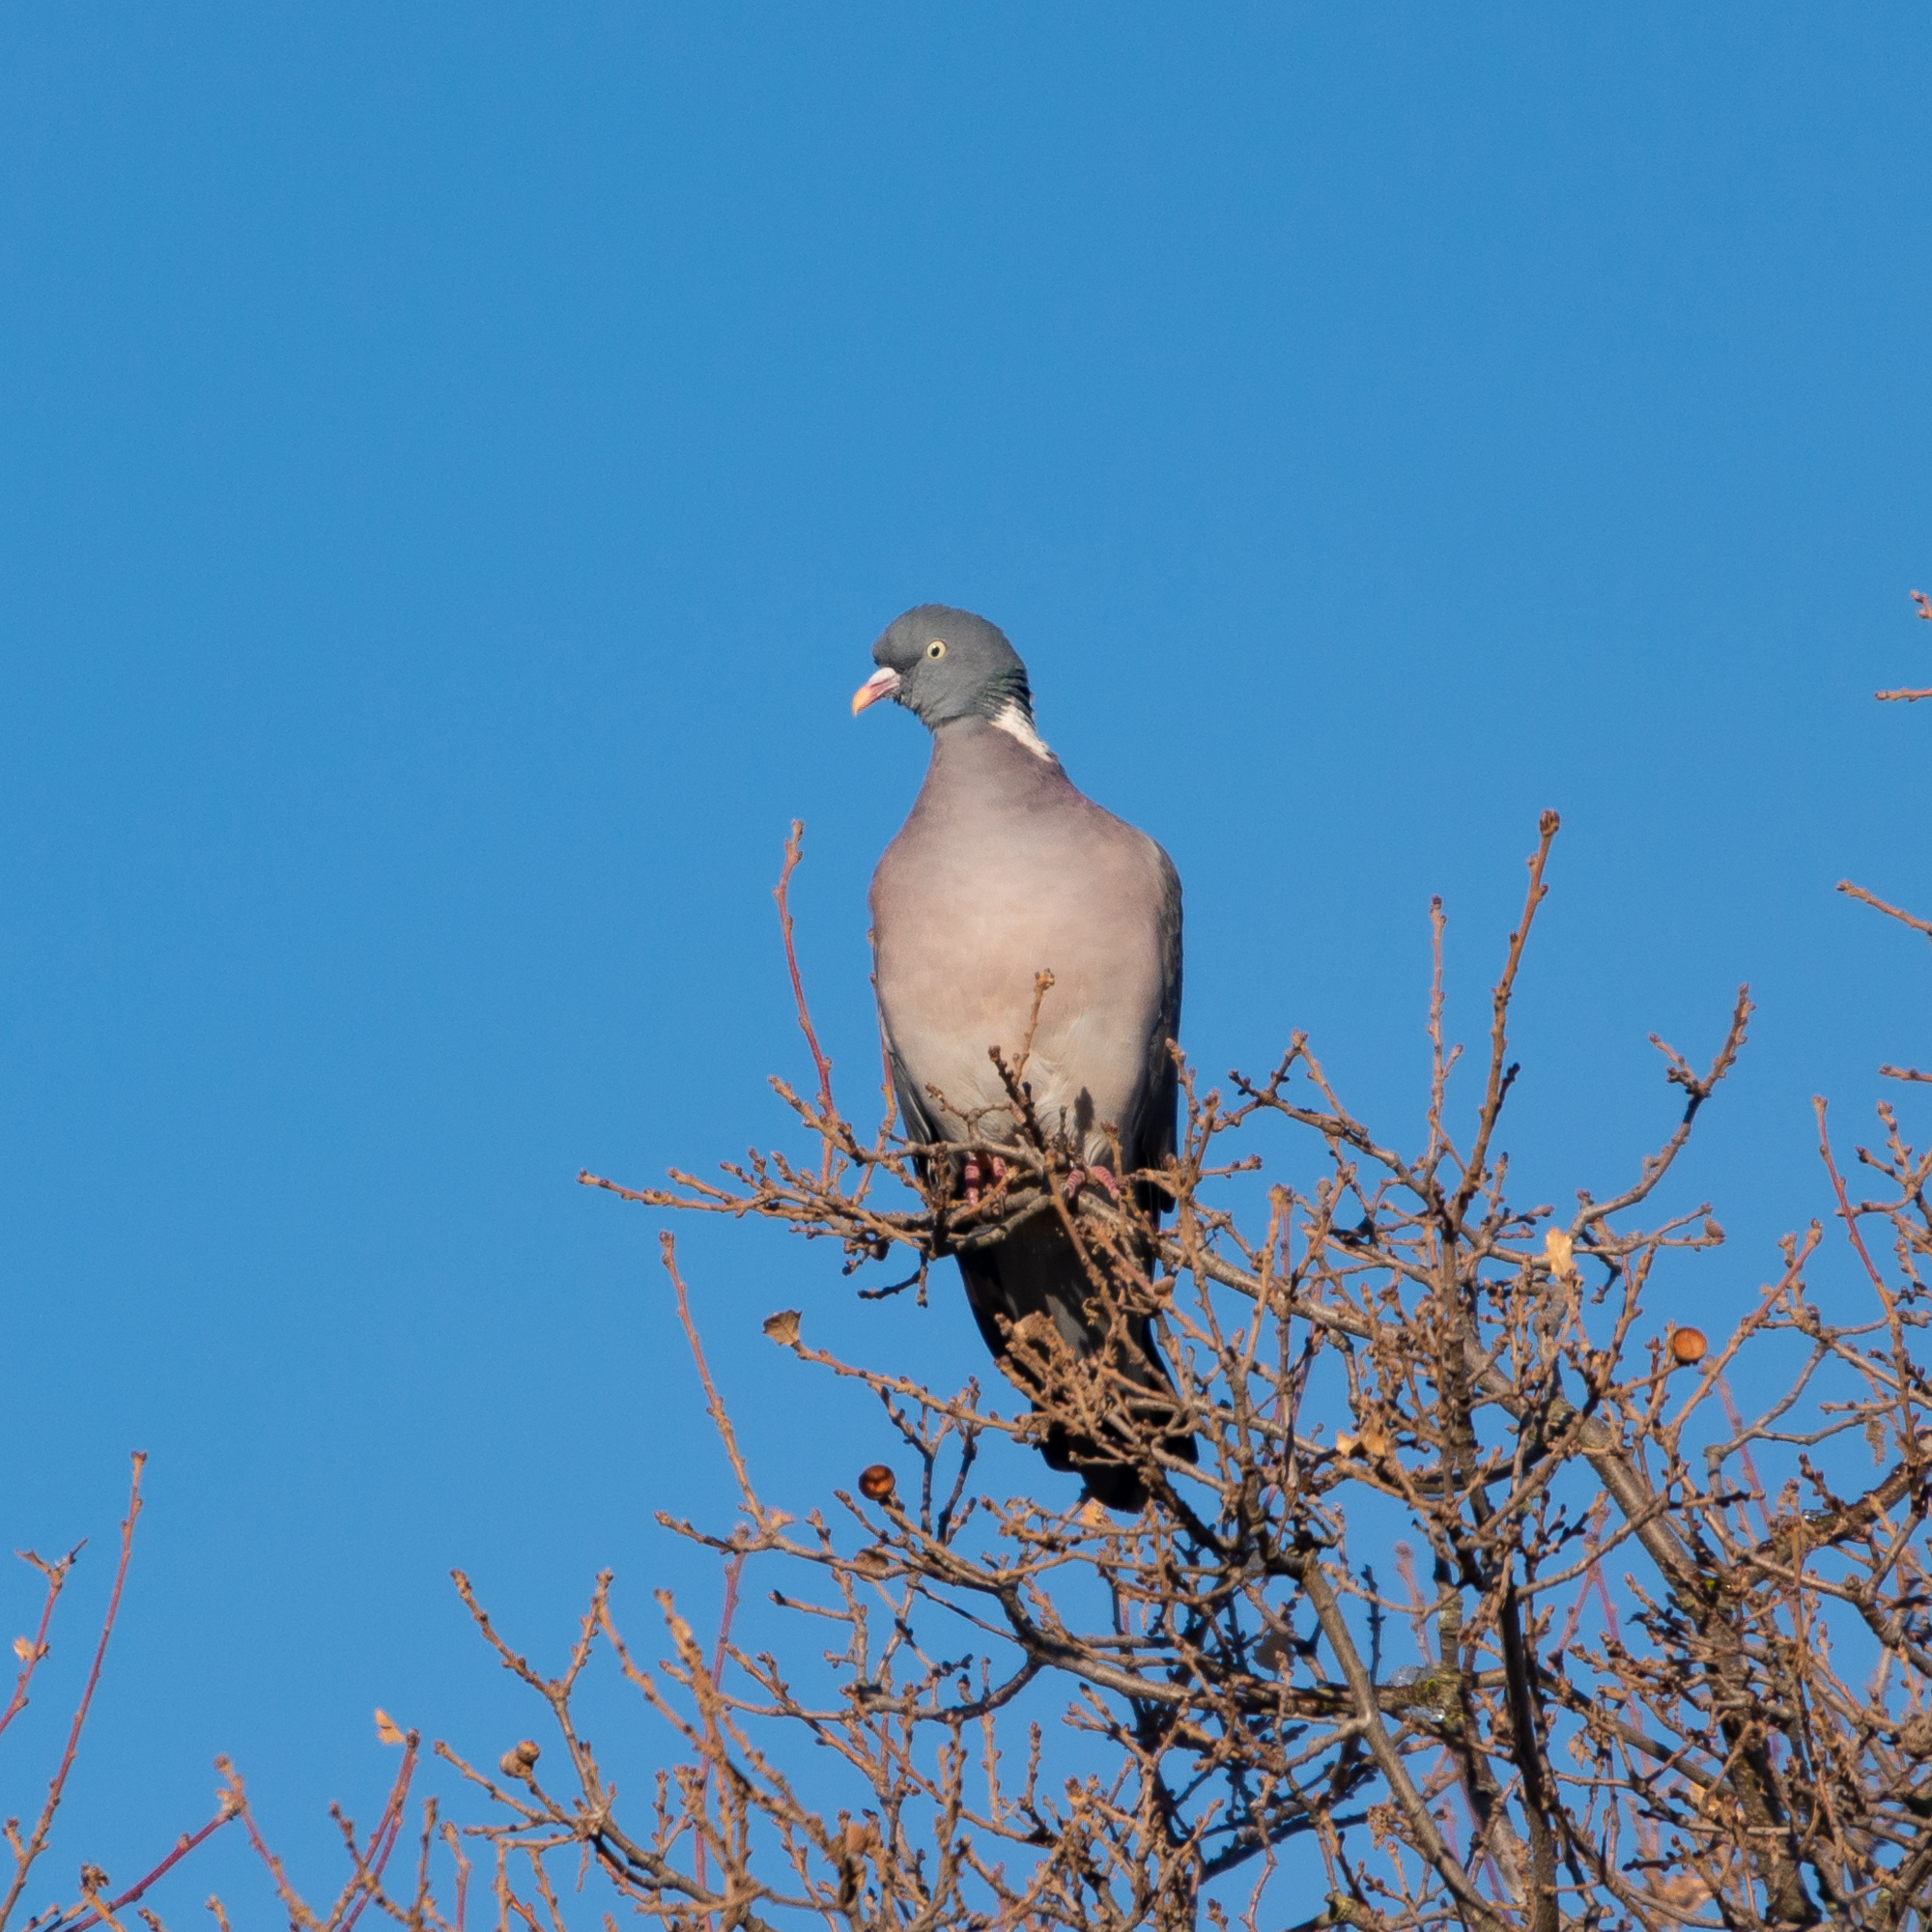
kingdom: Animalia
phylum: Chordata
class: Aves
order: Columbiformes
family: Columbidae
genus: Columba
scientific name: Columba palumbus
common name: Common wood pigeon
